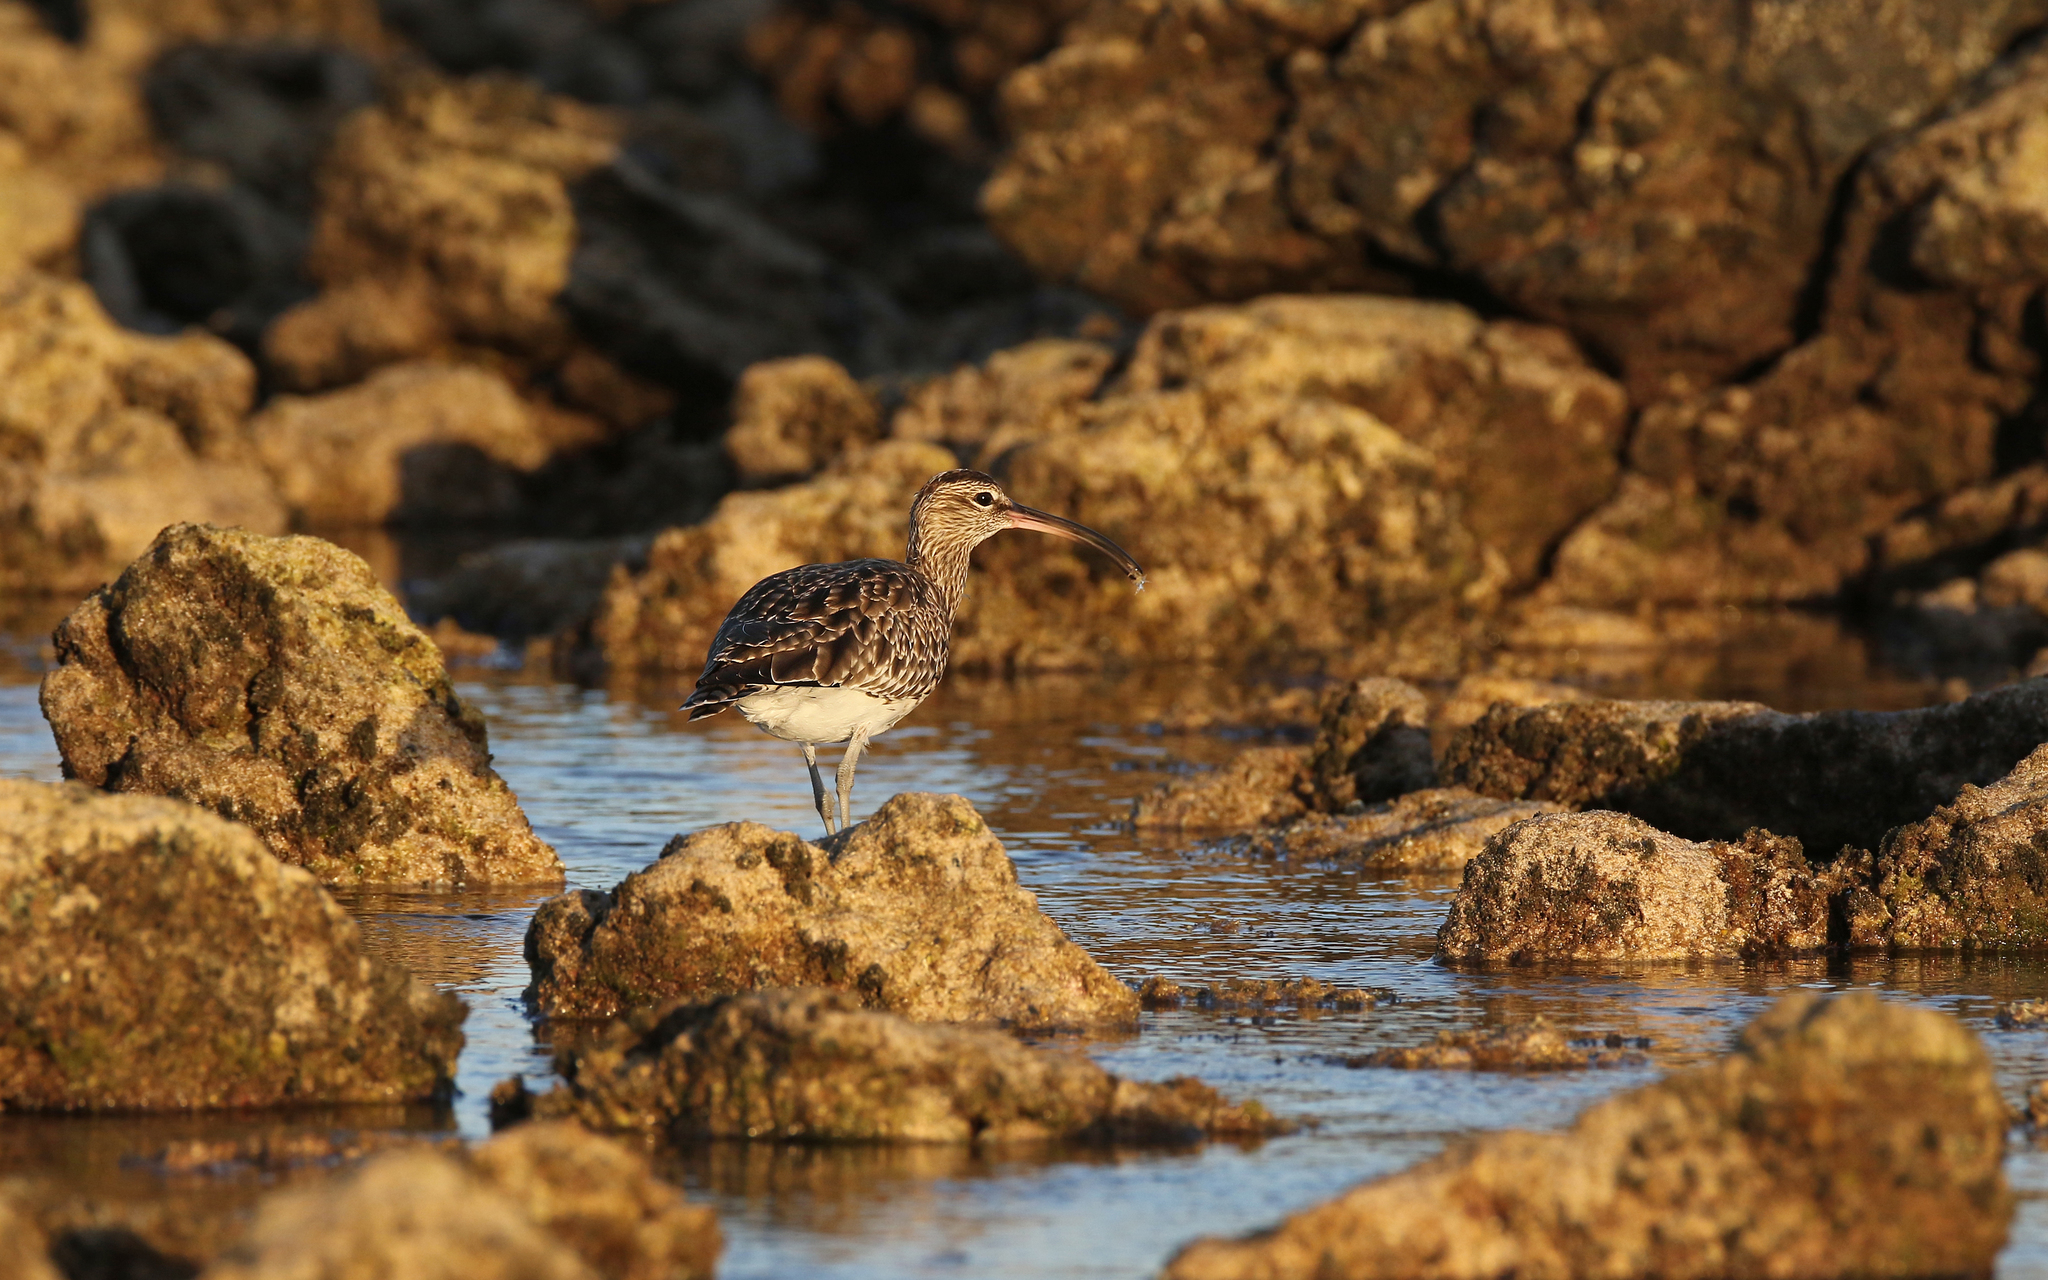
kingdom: Animalia
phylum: Chordata
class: Aves
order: Charadriiformes
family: Scolopacidae
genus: Numenius
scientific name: Numenius phaeopus
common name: Whimbrel
